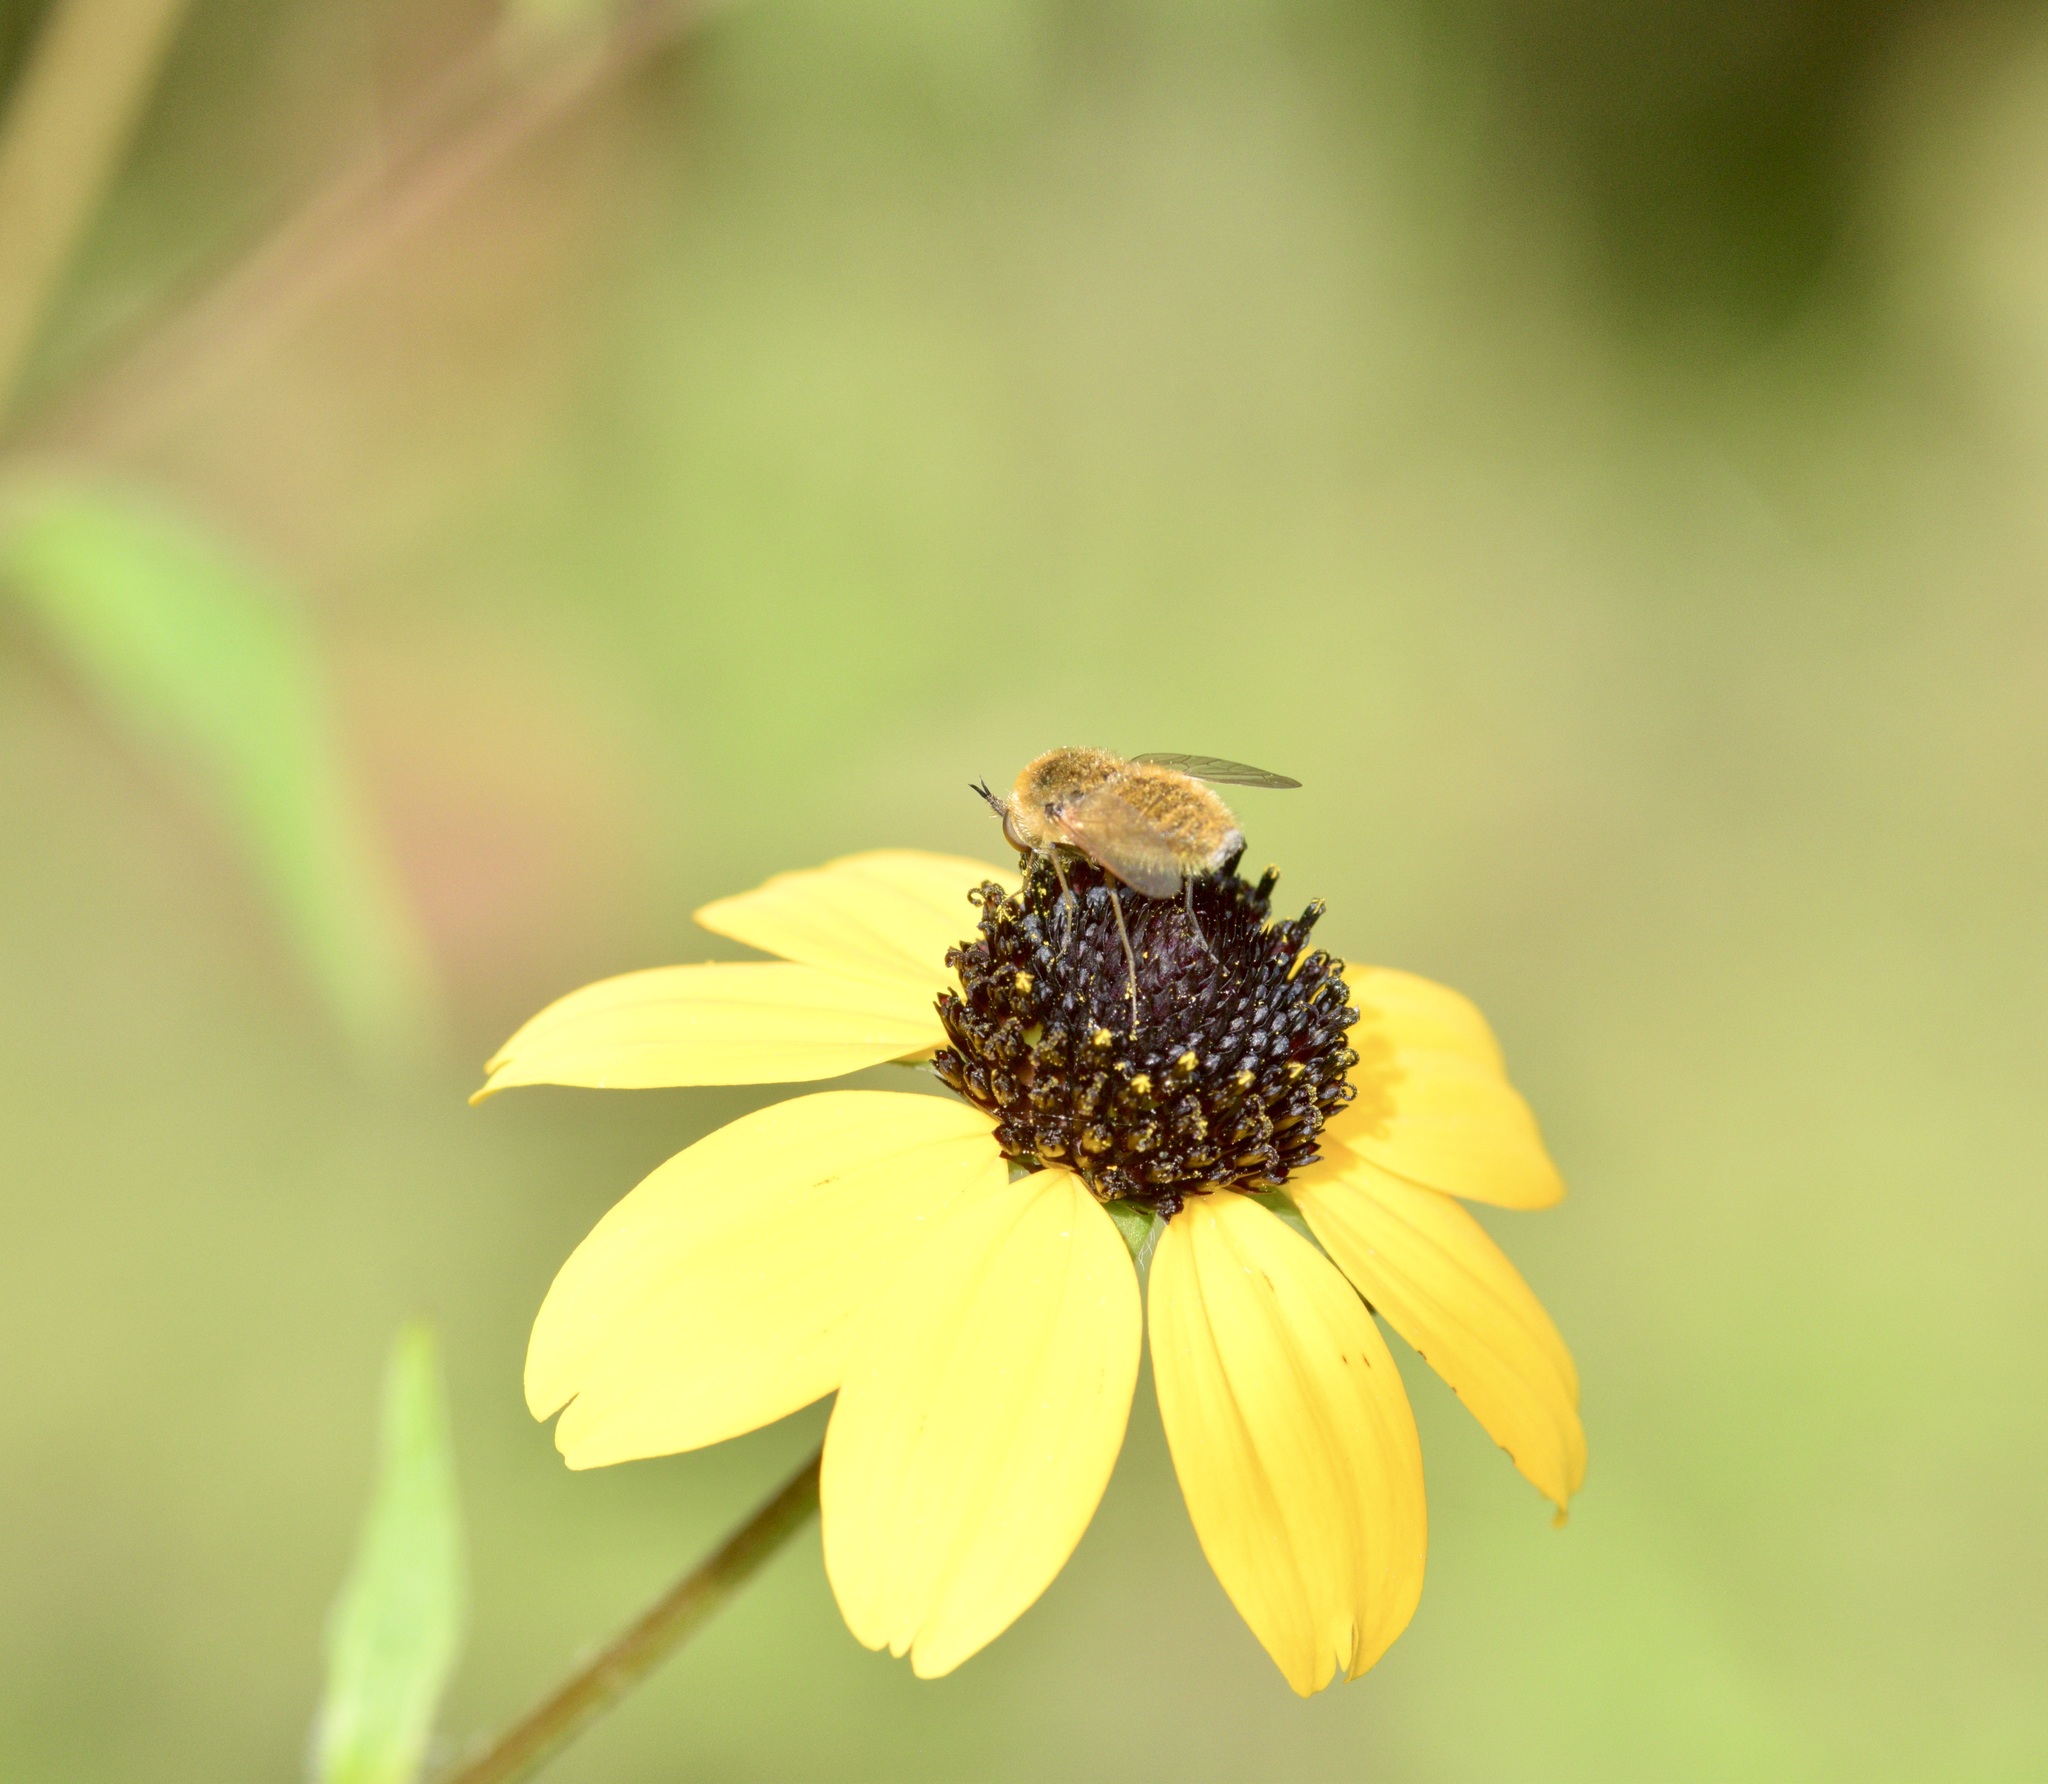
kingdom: Animalia
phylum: Arthropoda
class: Insecta
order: Diptera
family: Bombyliidae
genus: Sparnopolius
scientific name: Sparnopolius confusus
